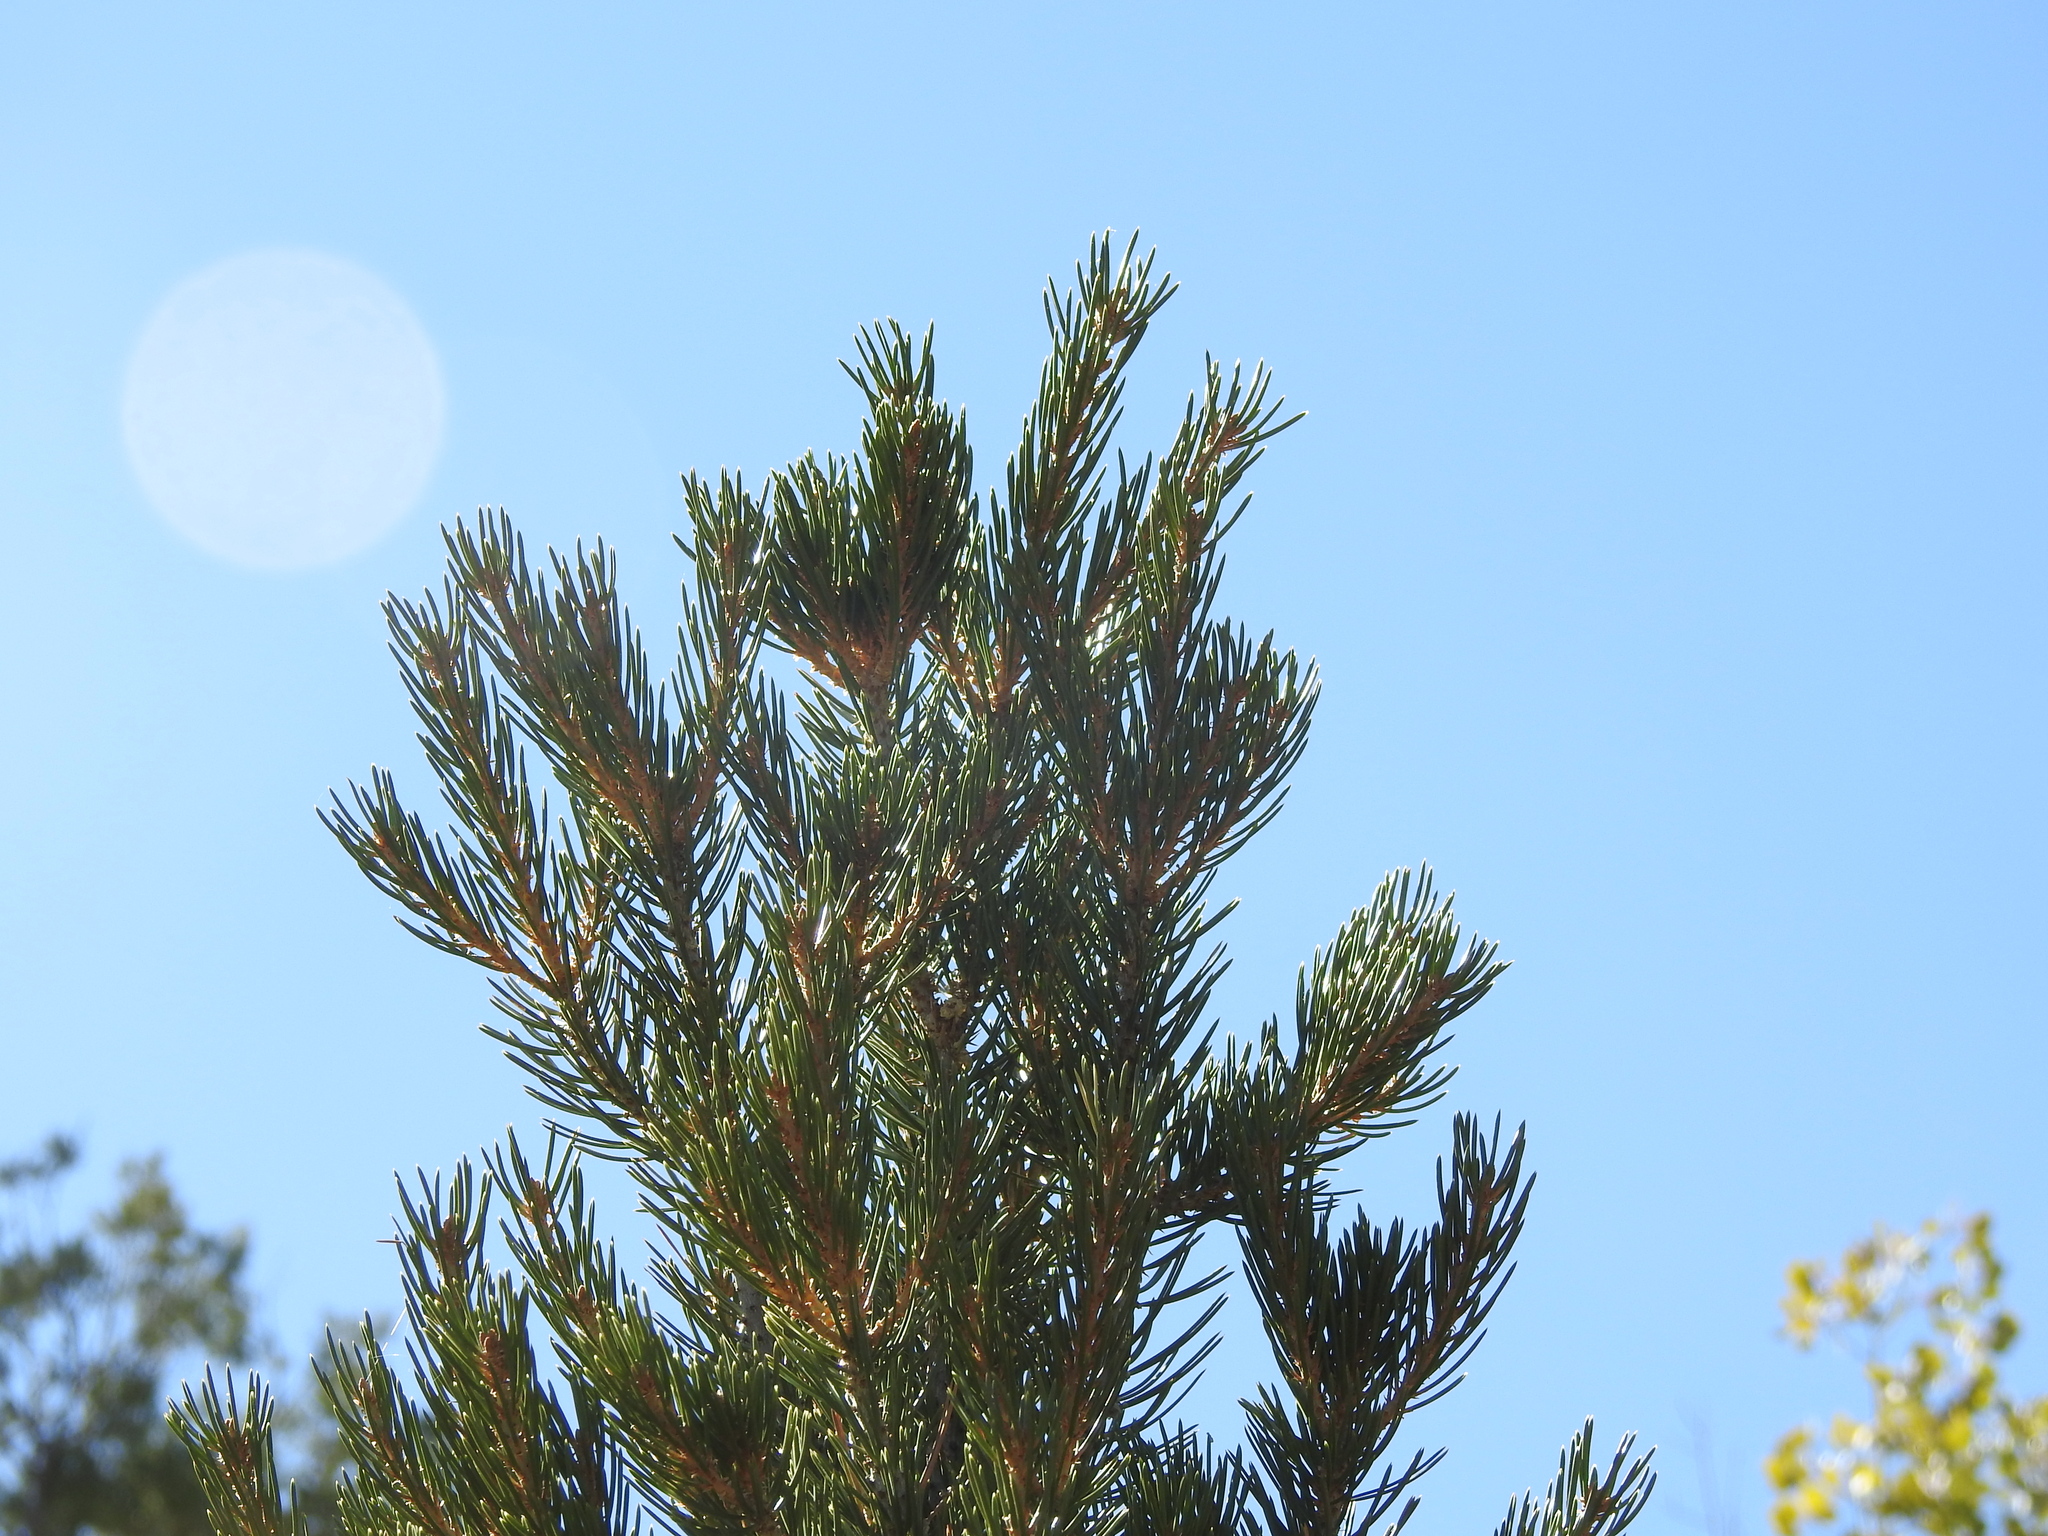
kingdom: Plantae
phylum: Tracheophyta
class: Pinopsida
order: Pinales
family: Pinaceae
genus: Pinus
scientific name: Pinus edulis
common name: Colorado pinyon
